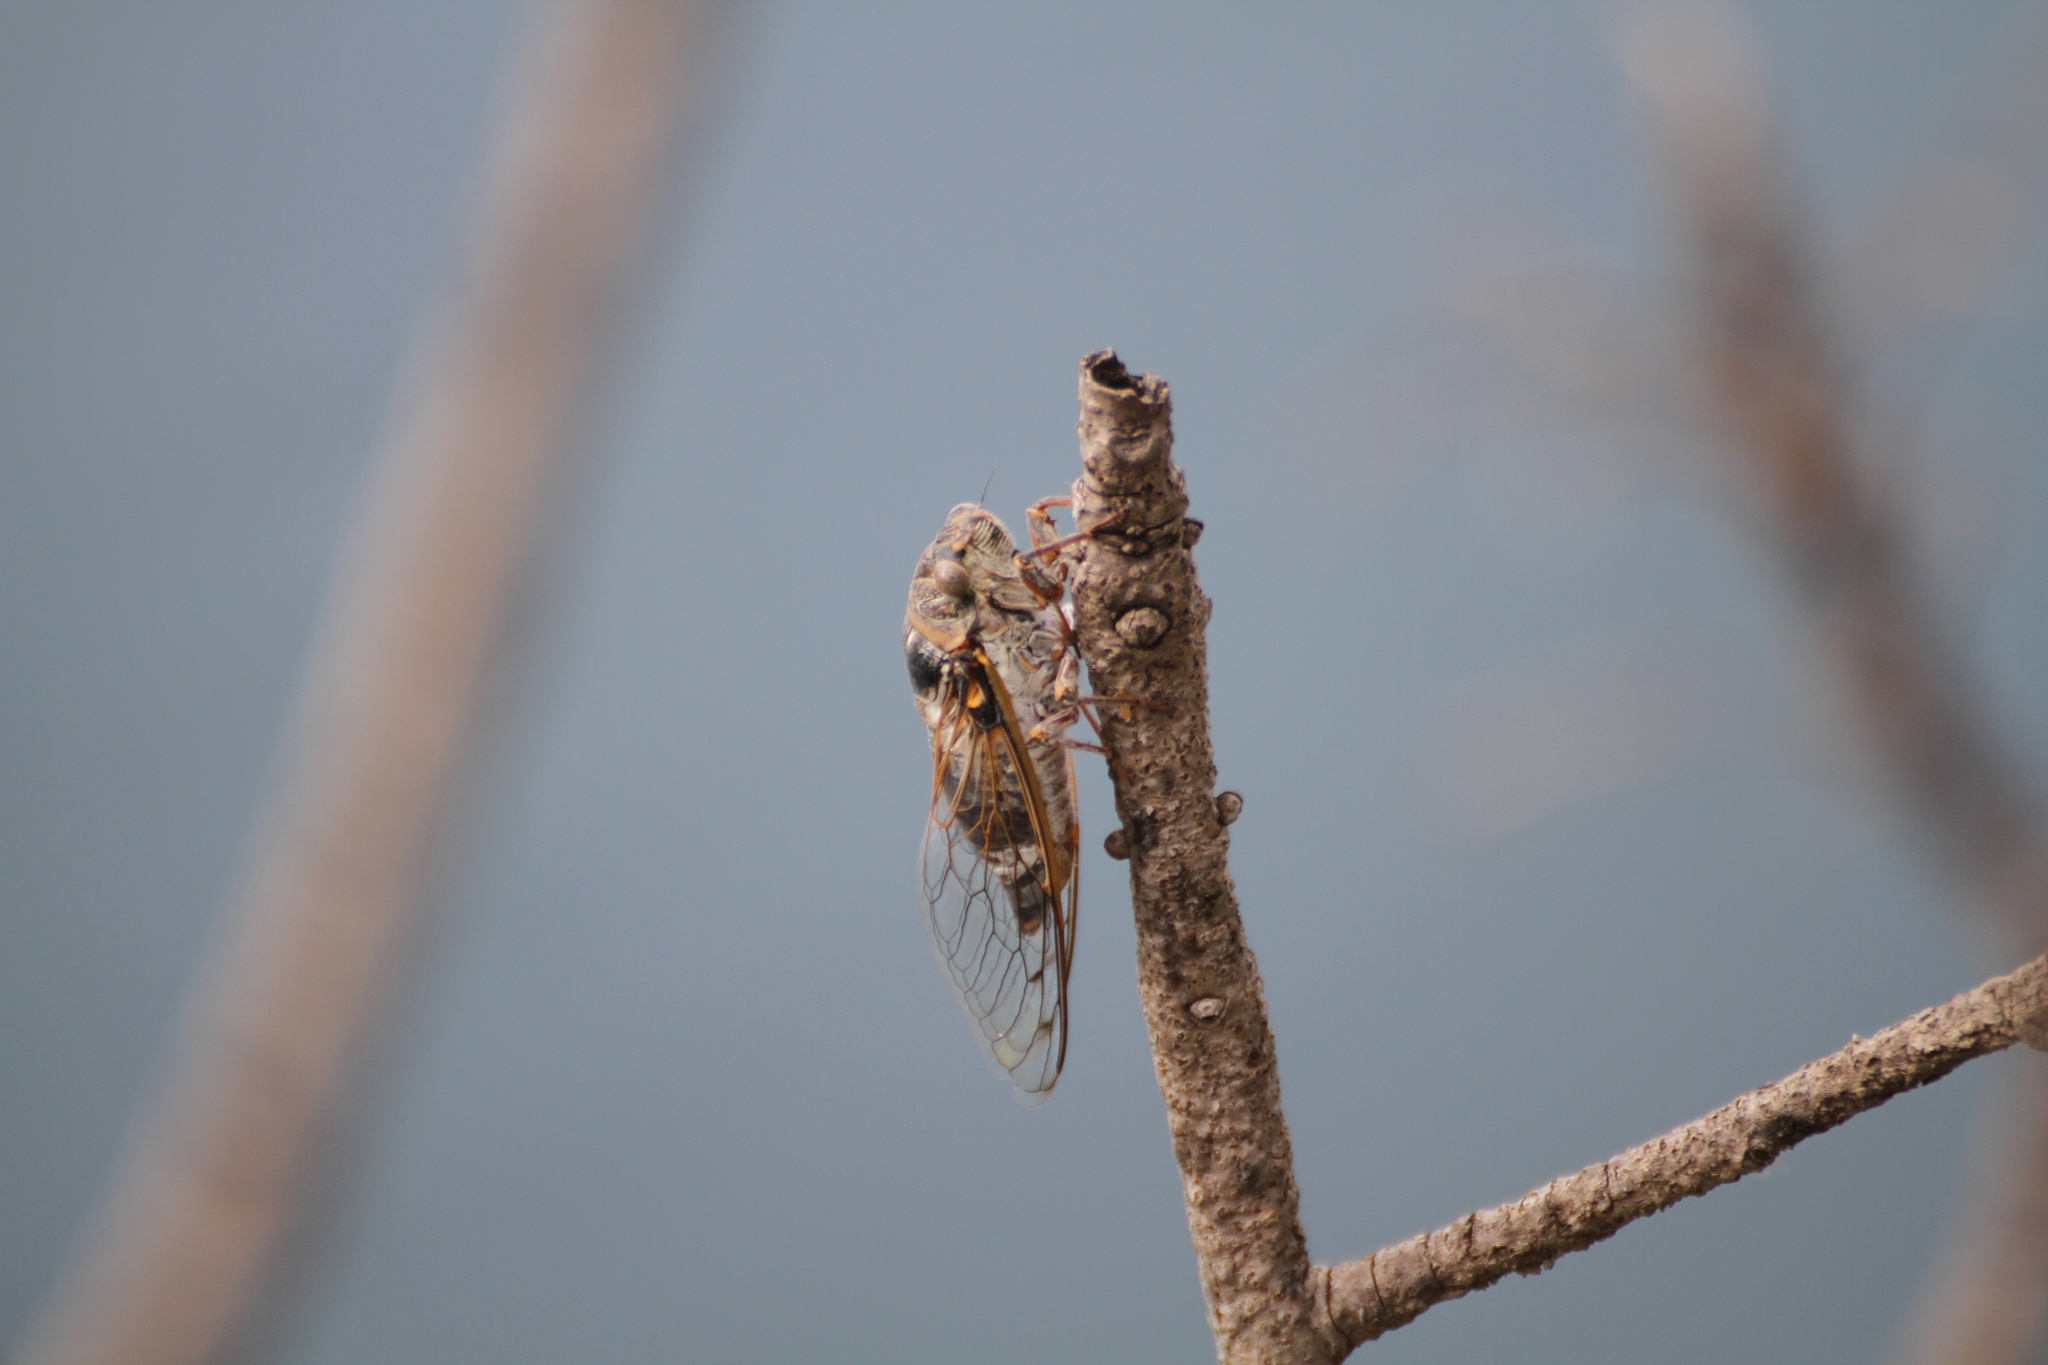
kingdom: Animalia
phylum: Arthropoda
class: Insecta
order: Hemiptera
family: Cicadidae
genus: Lyristes
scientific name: Lyristes plebejus
